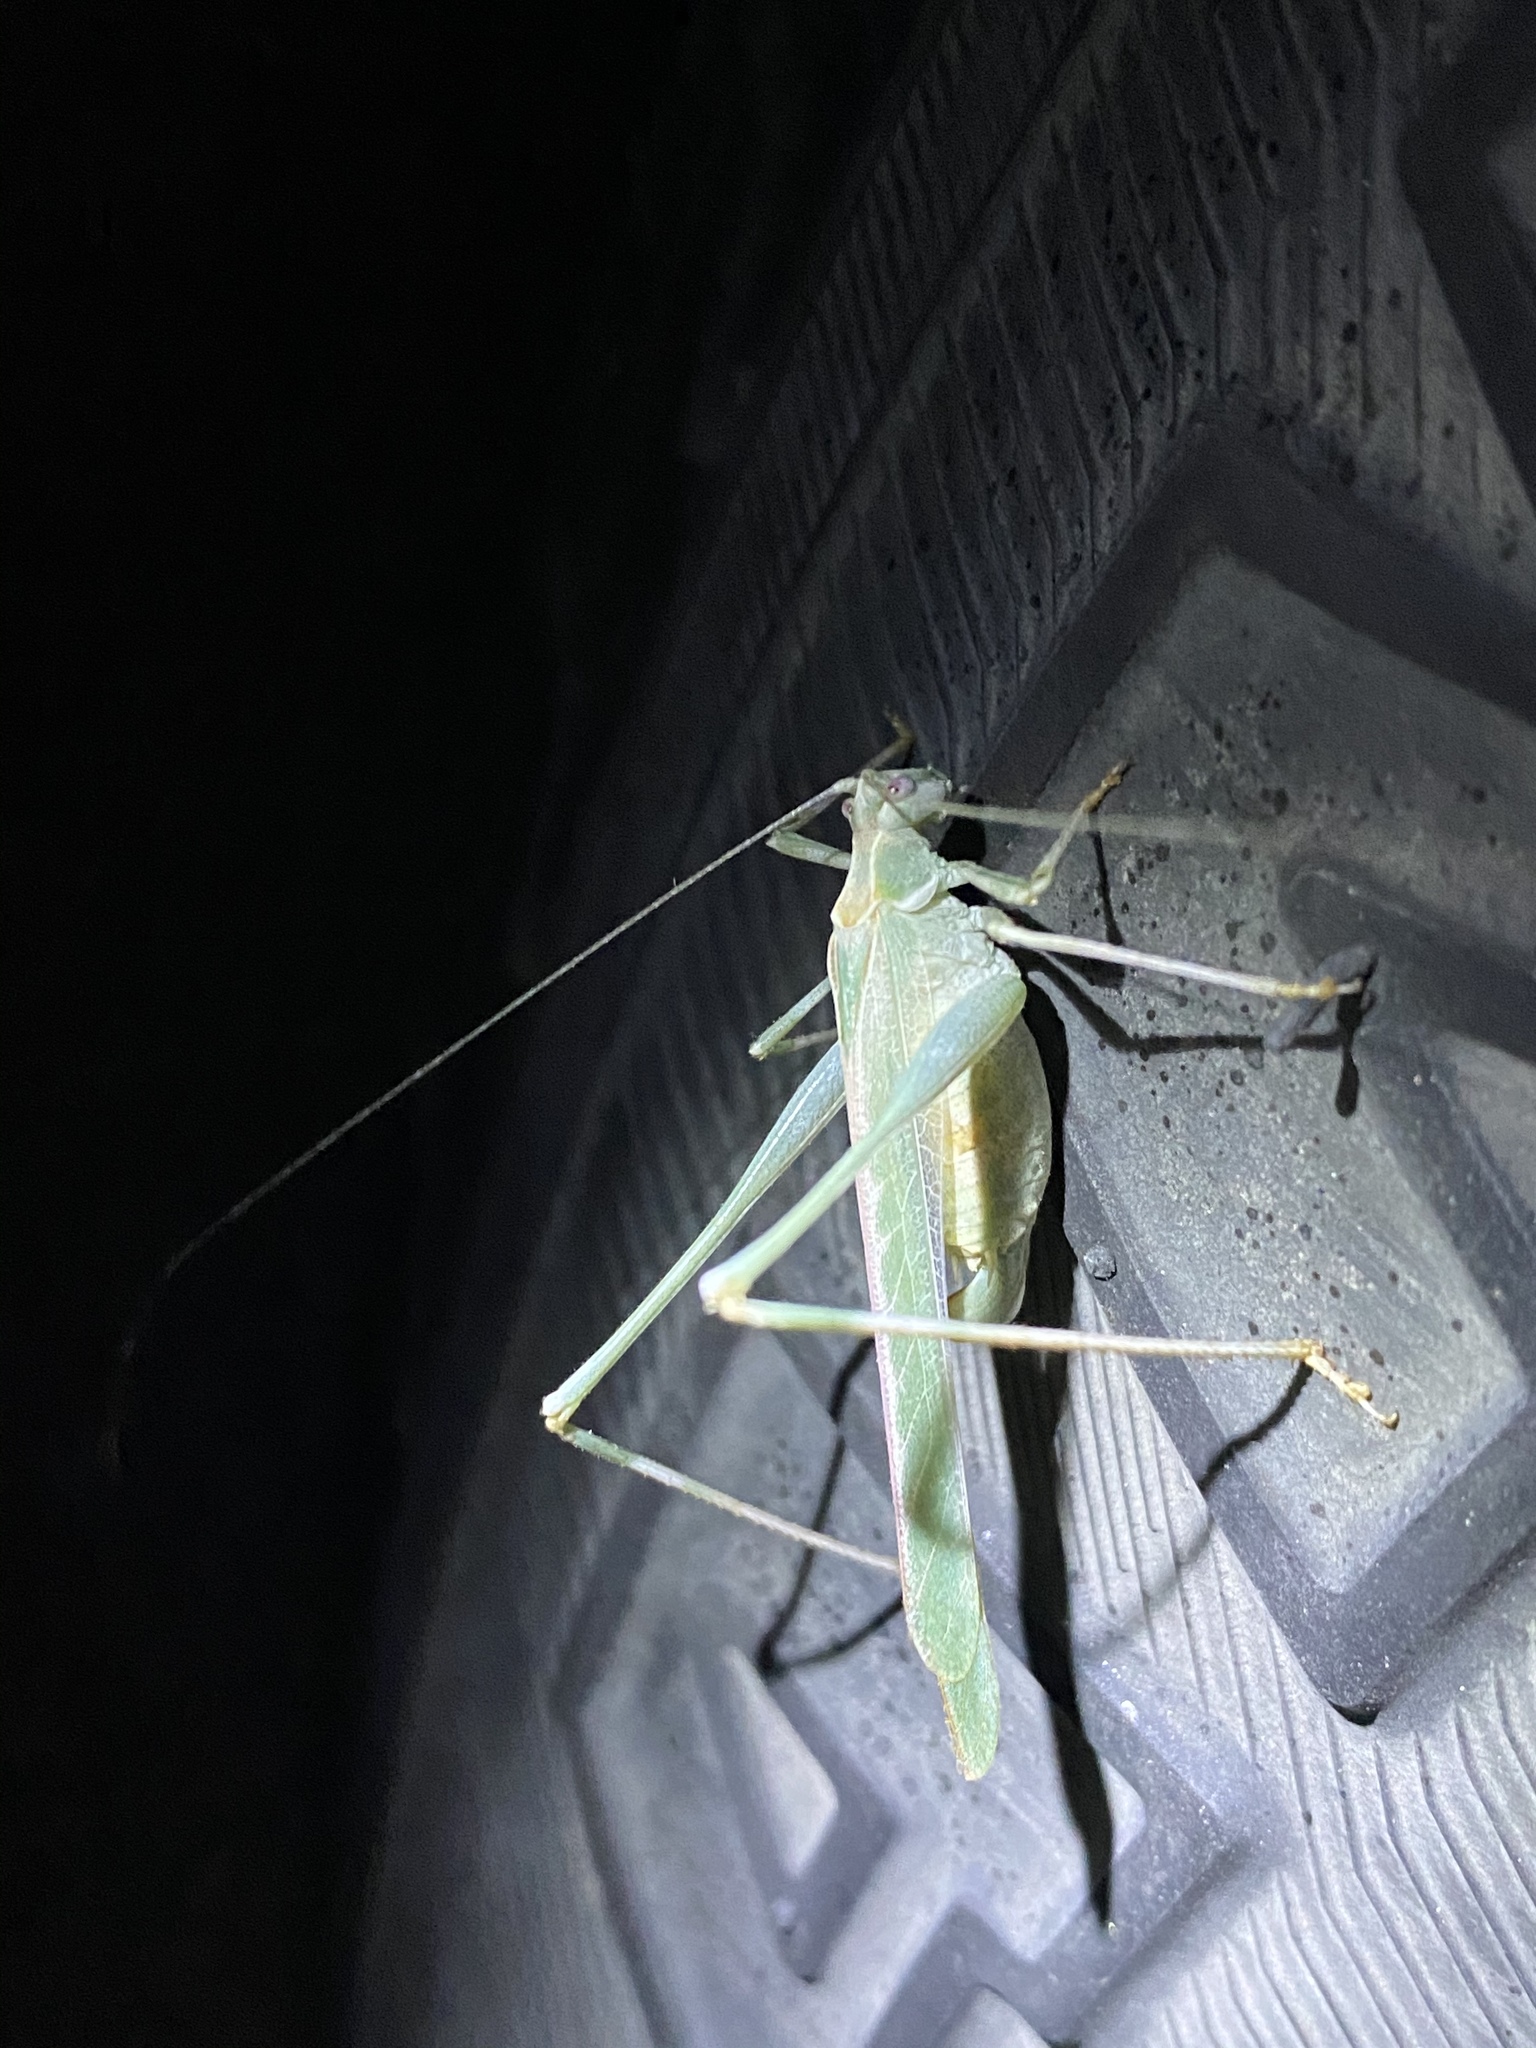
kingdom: Animalia
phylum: Arthropoda
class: Insecta
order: Orthoptera
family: Tettigoniidae
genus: Insara
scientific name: Insara elegans
